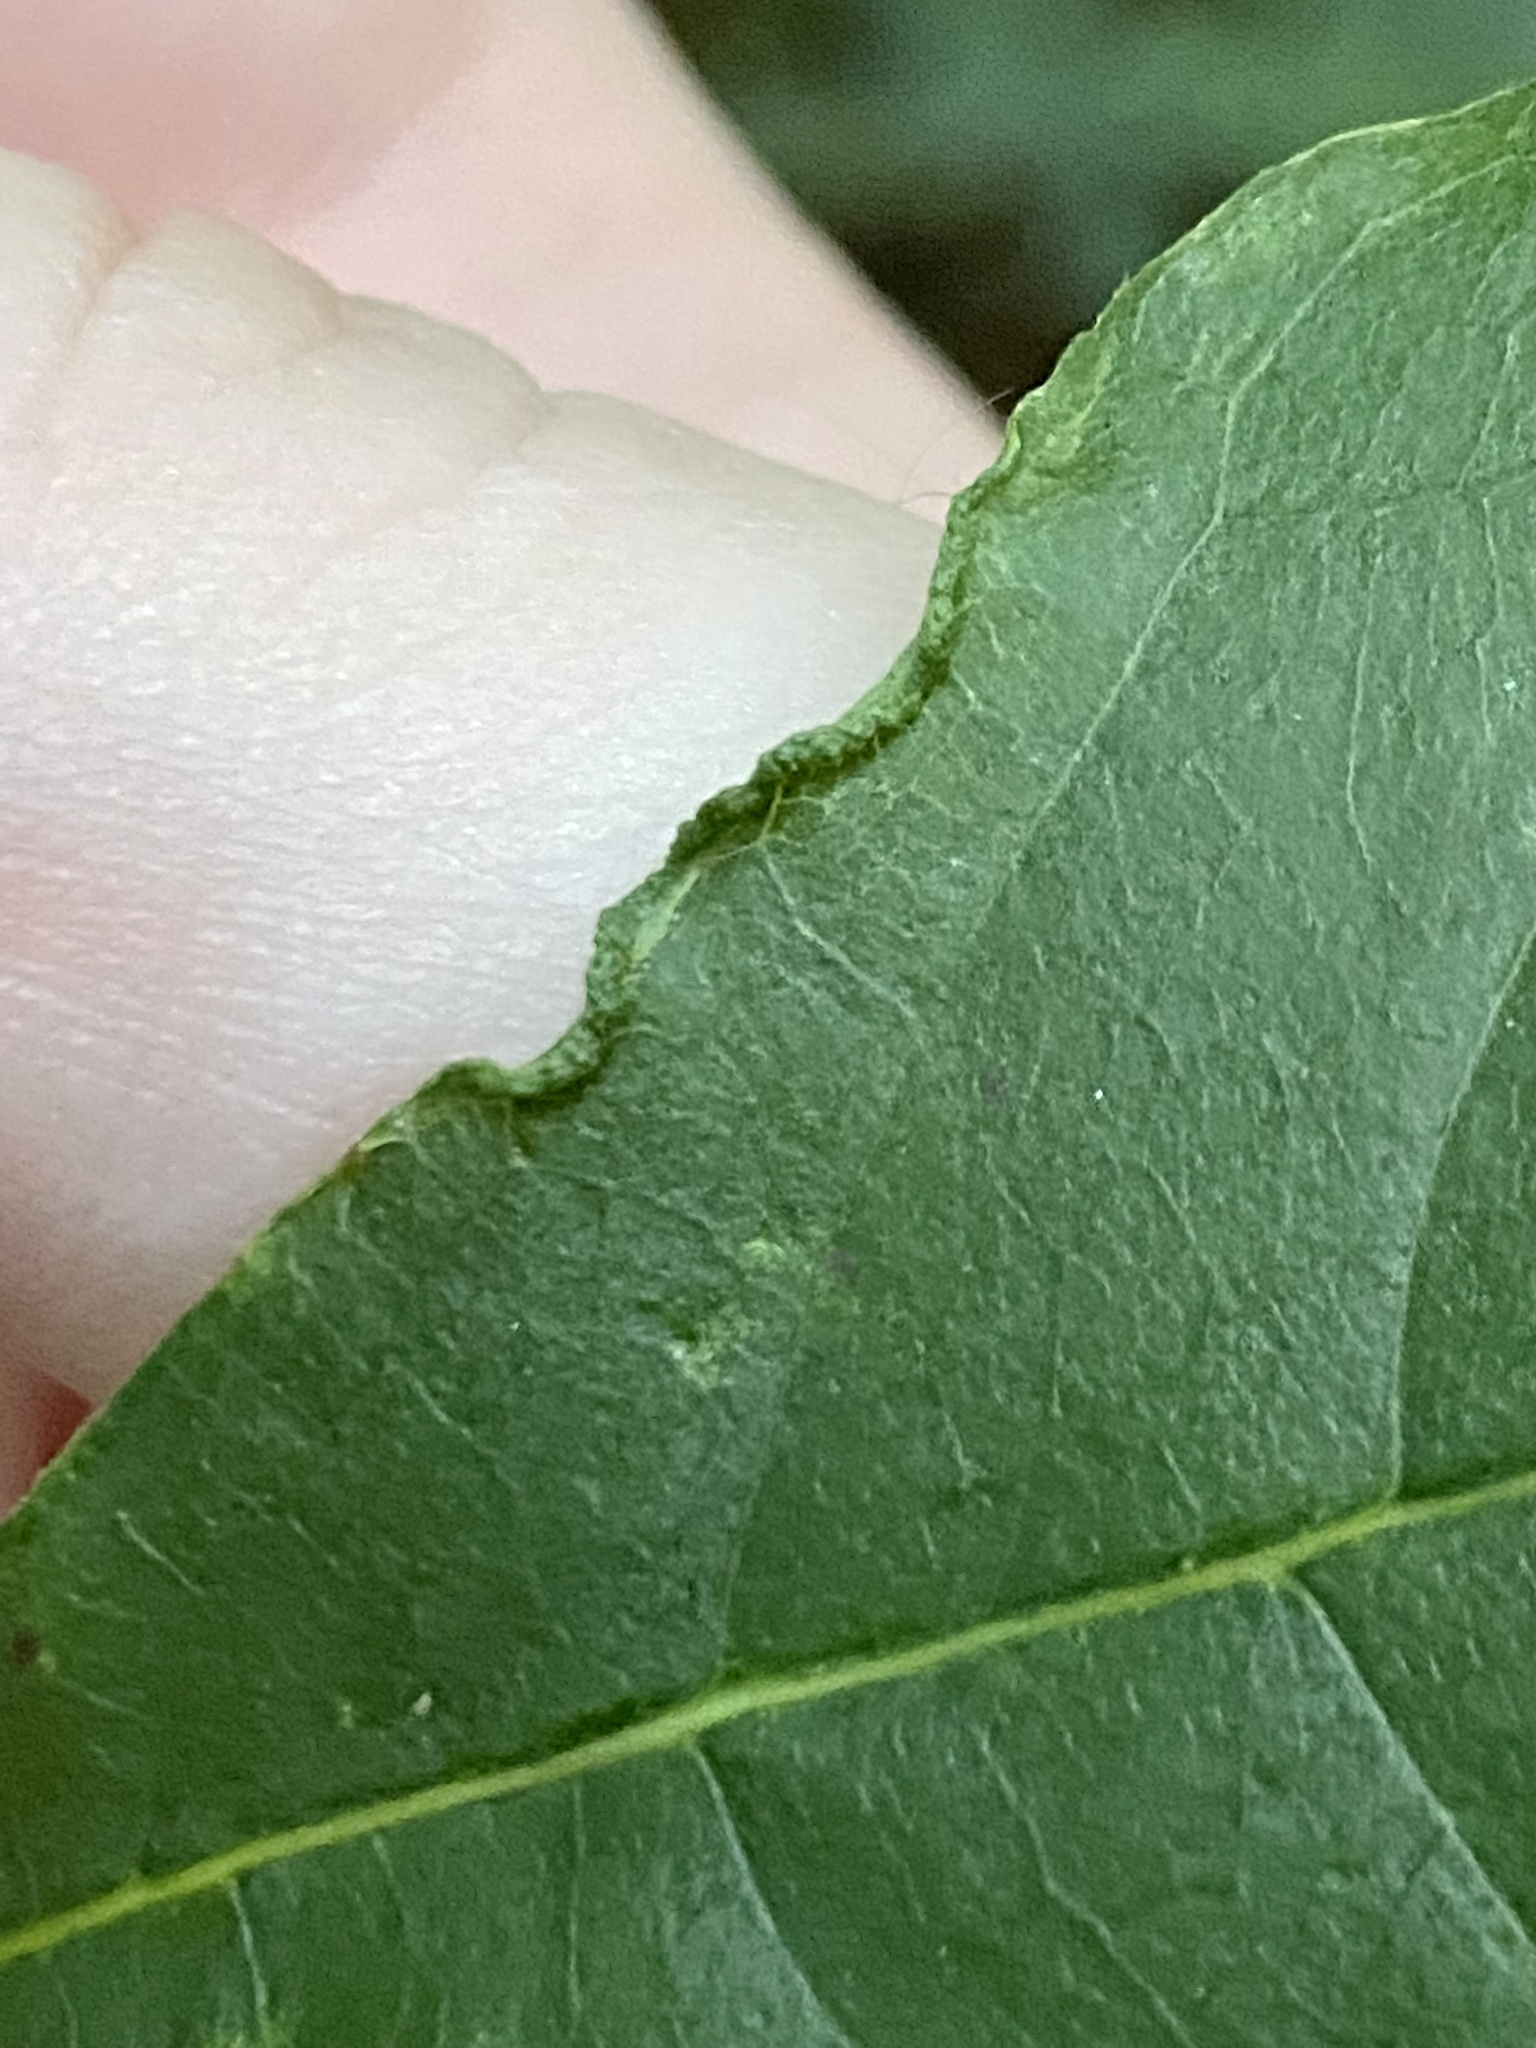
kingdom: Animalia
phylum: Arthropoda
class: Arachnida
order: Trombidiformes
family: Eriophyidae
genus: Aceria
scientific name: Aceria
